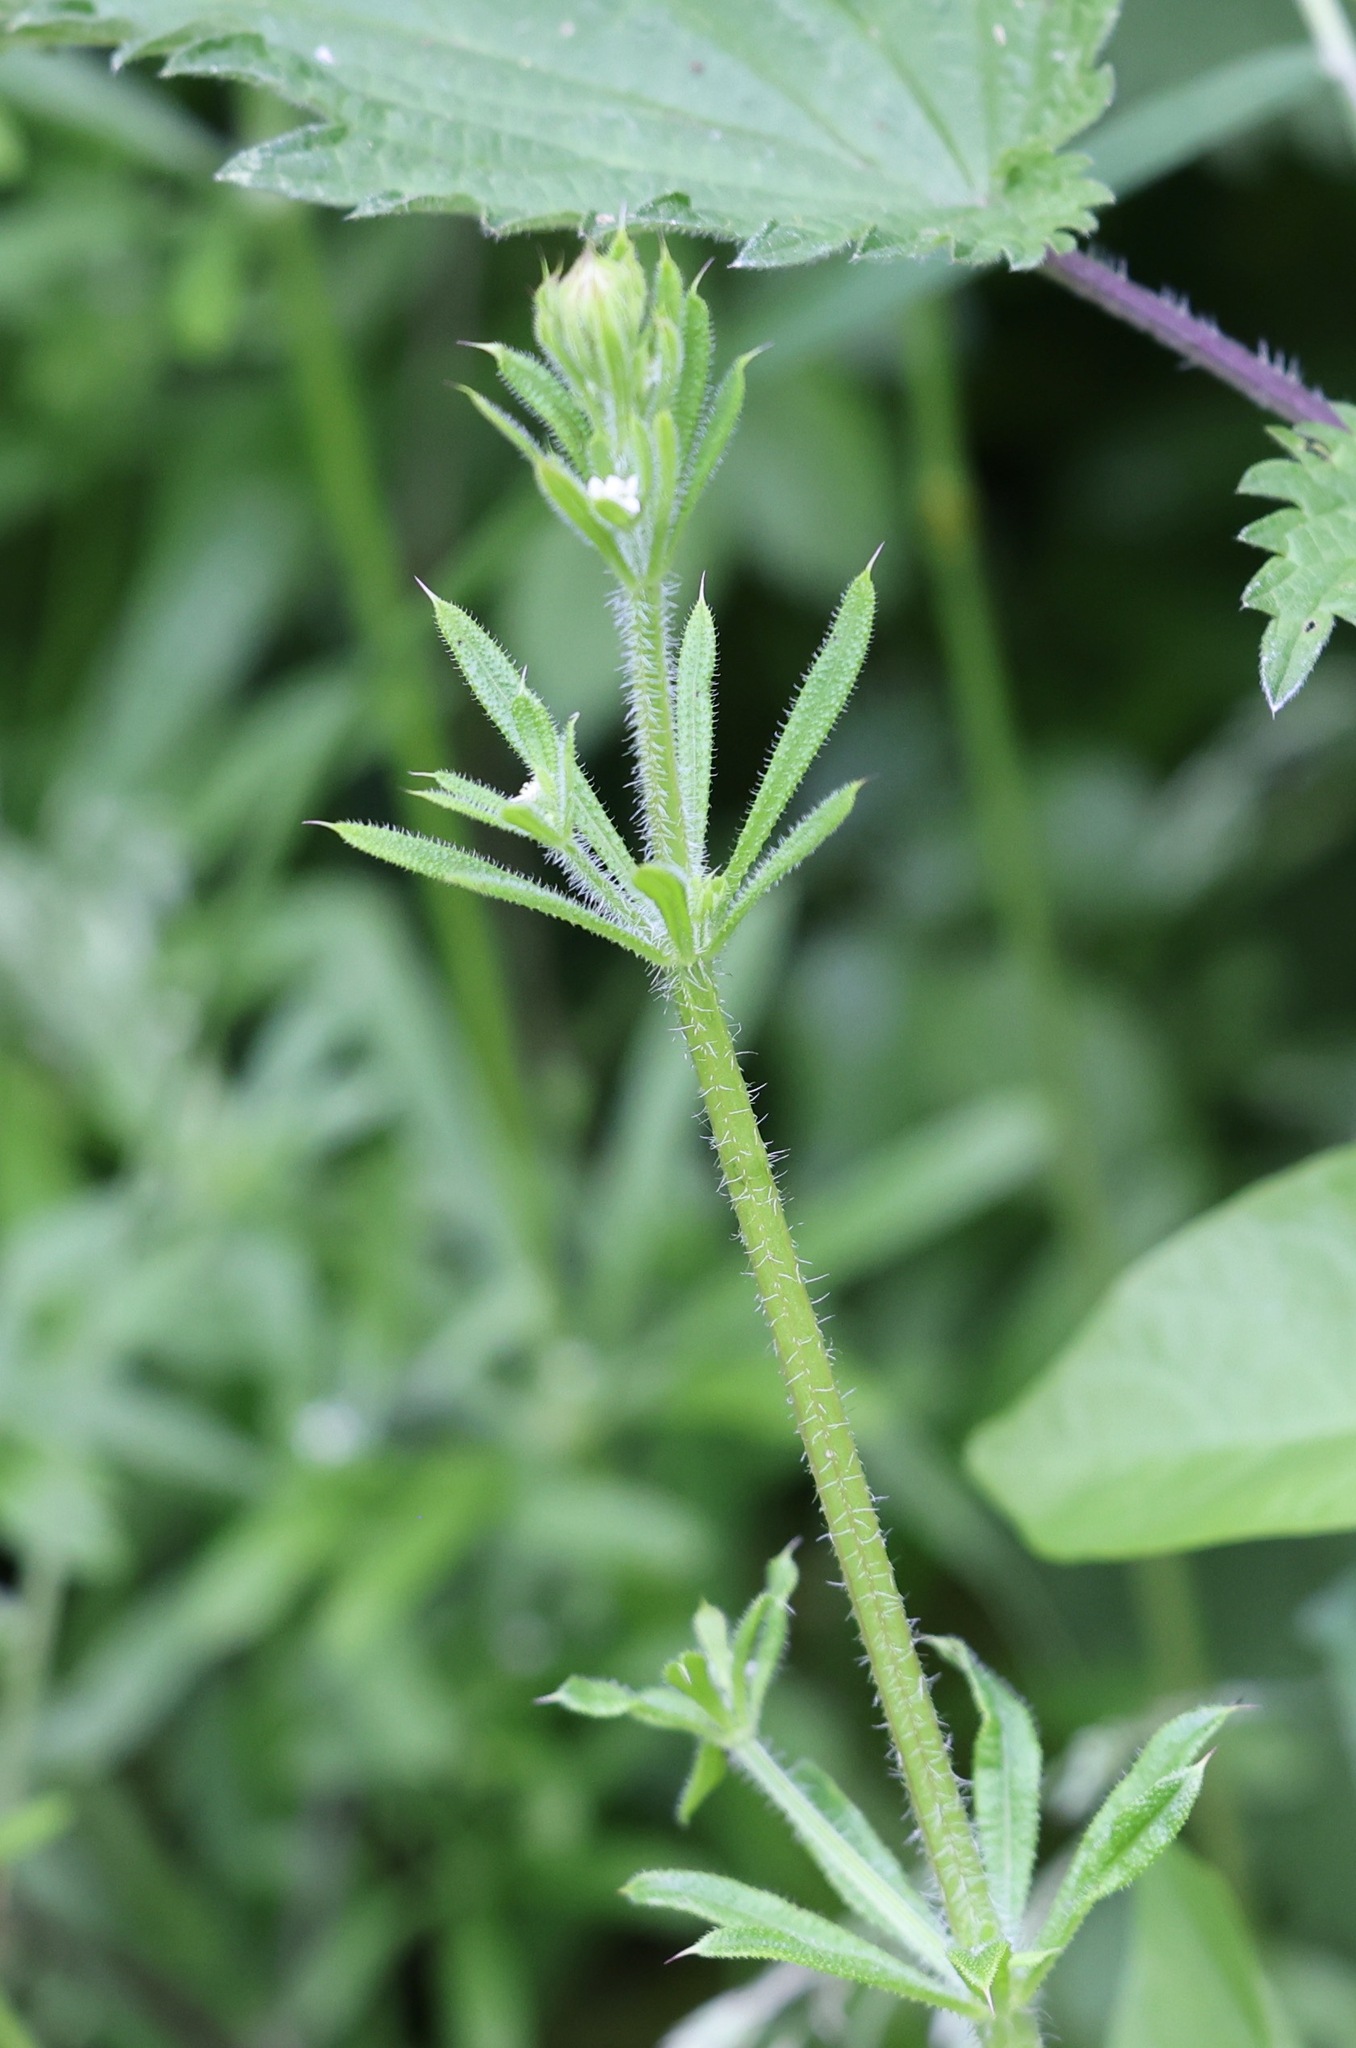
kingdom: Plantae
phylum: Tracheophyta
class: Magnoliopsida
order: Gentianales
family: Rubiaceae
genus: Galium
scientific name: Galium aparine
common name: Cleavers
